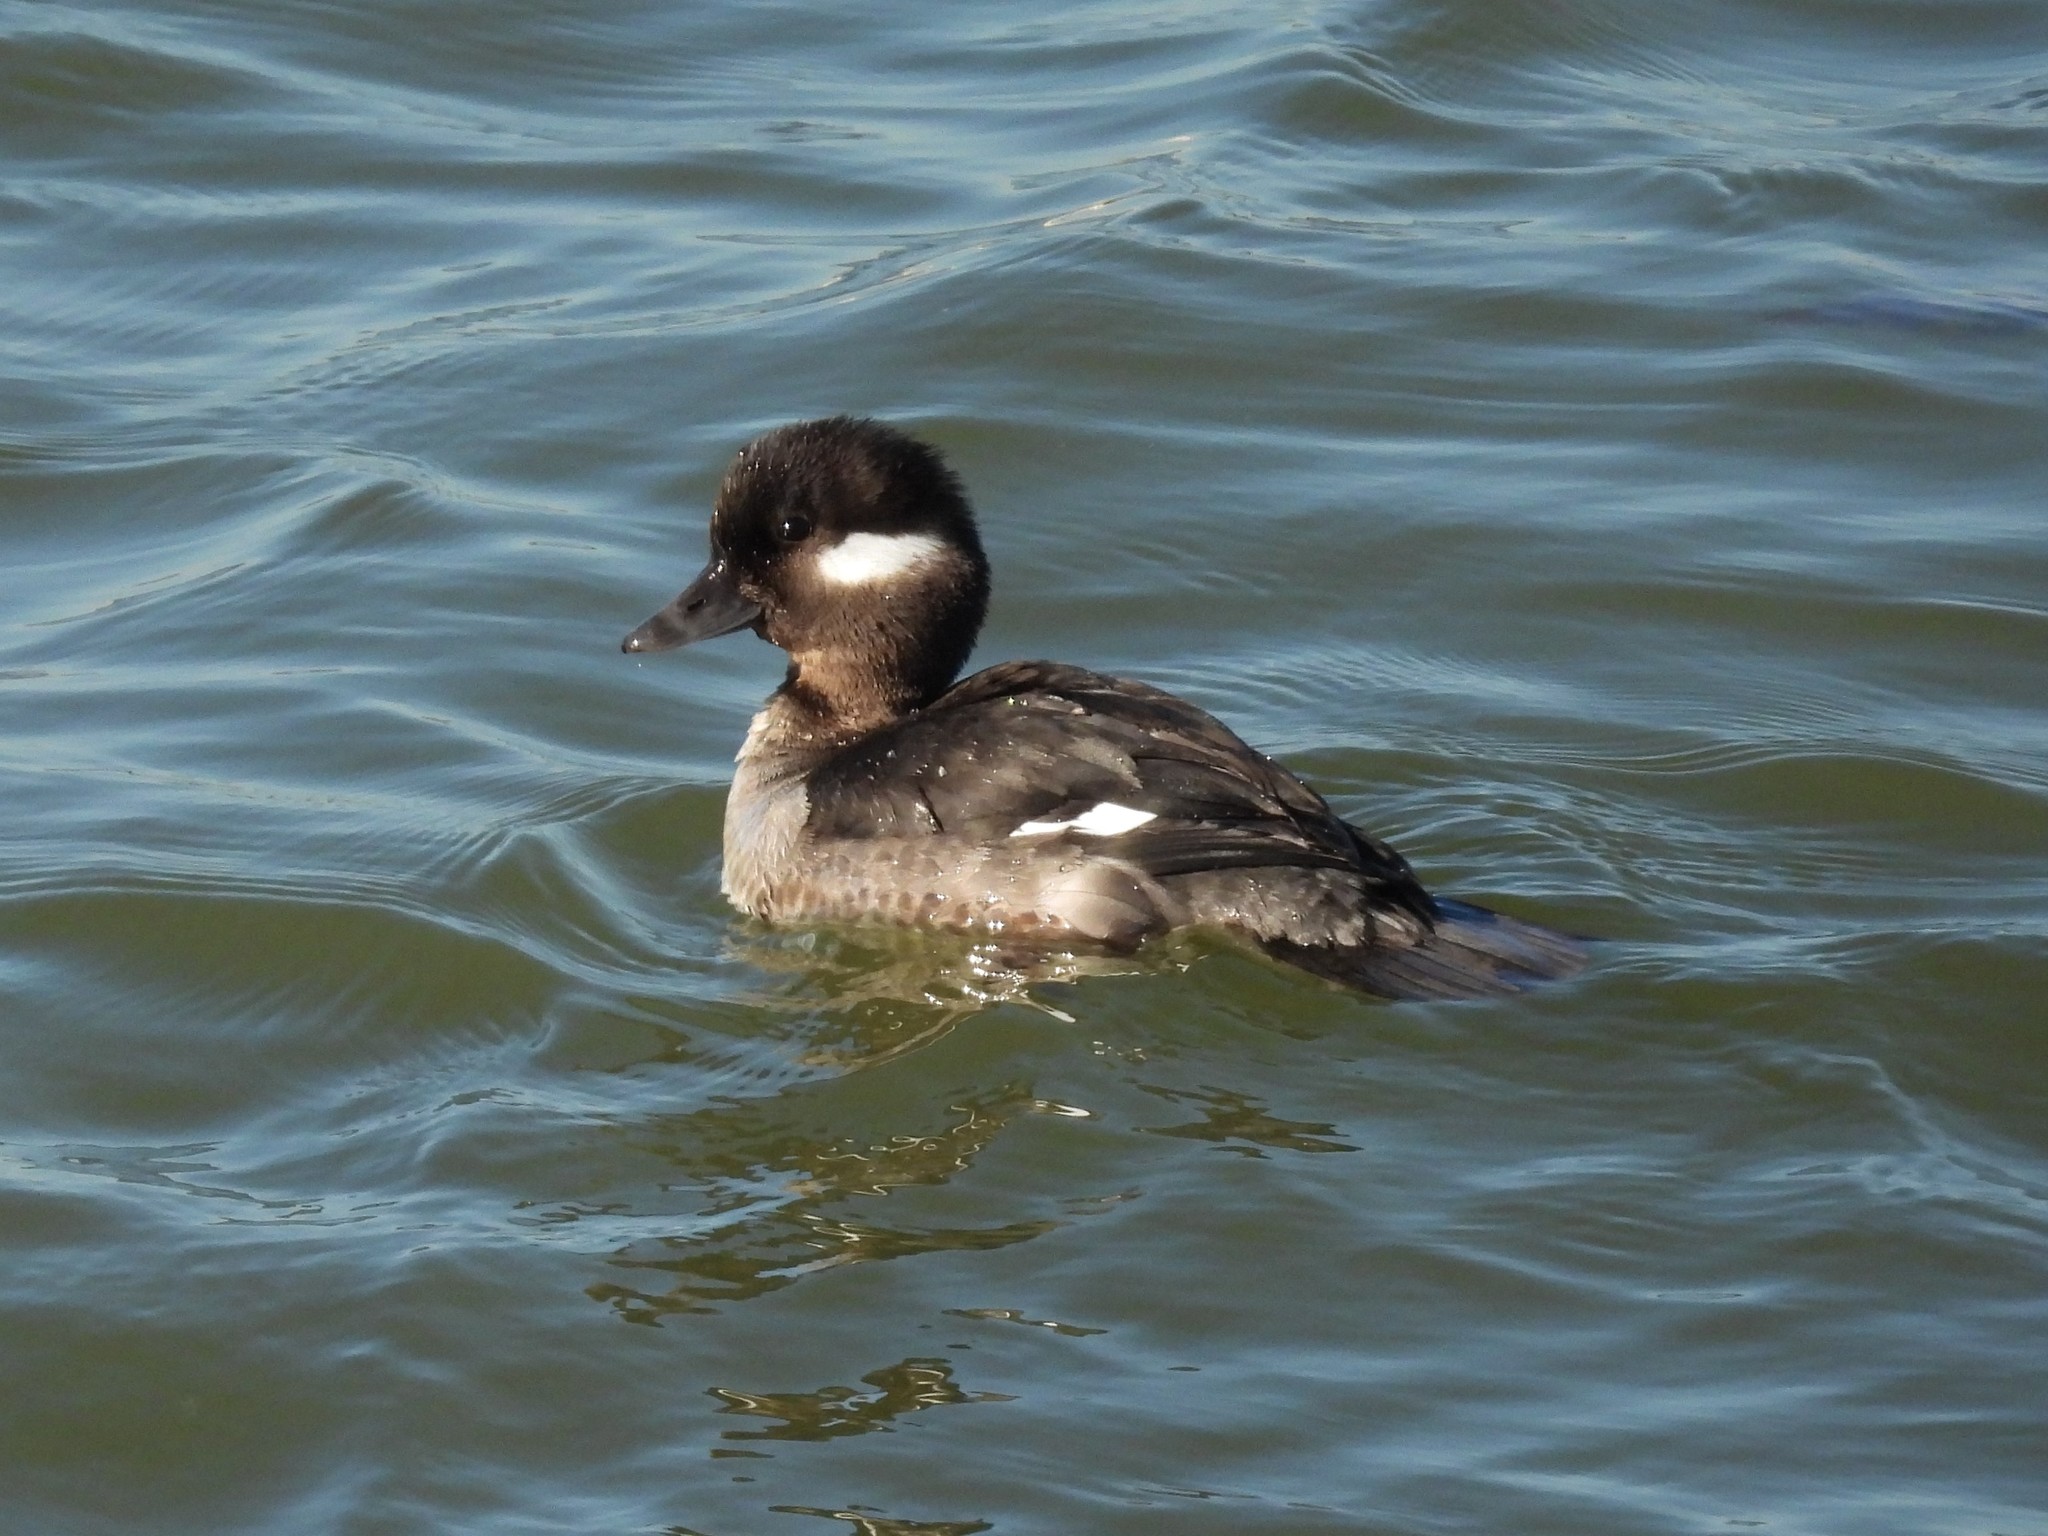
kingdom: Animalia
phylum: Chordata
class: Aves
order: Anseriformes
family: Anatidae
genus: Bucephala
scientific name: Bucephala albeola
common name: Bufflehead
